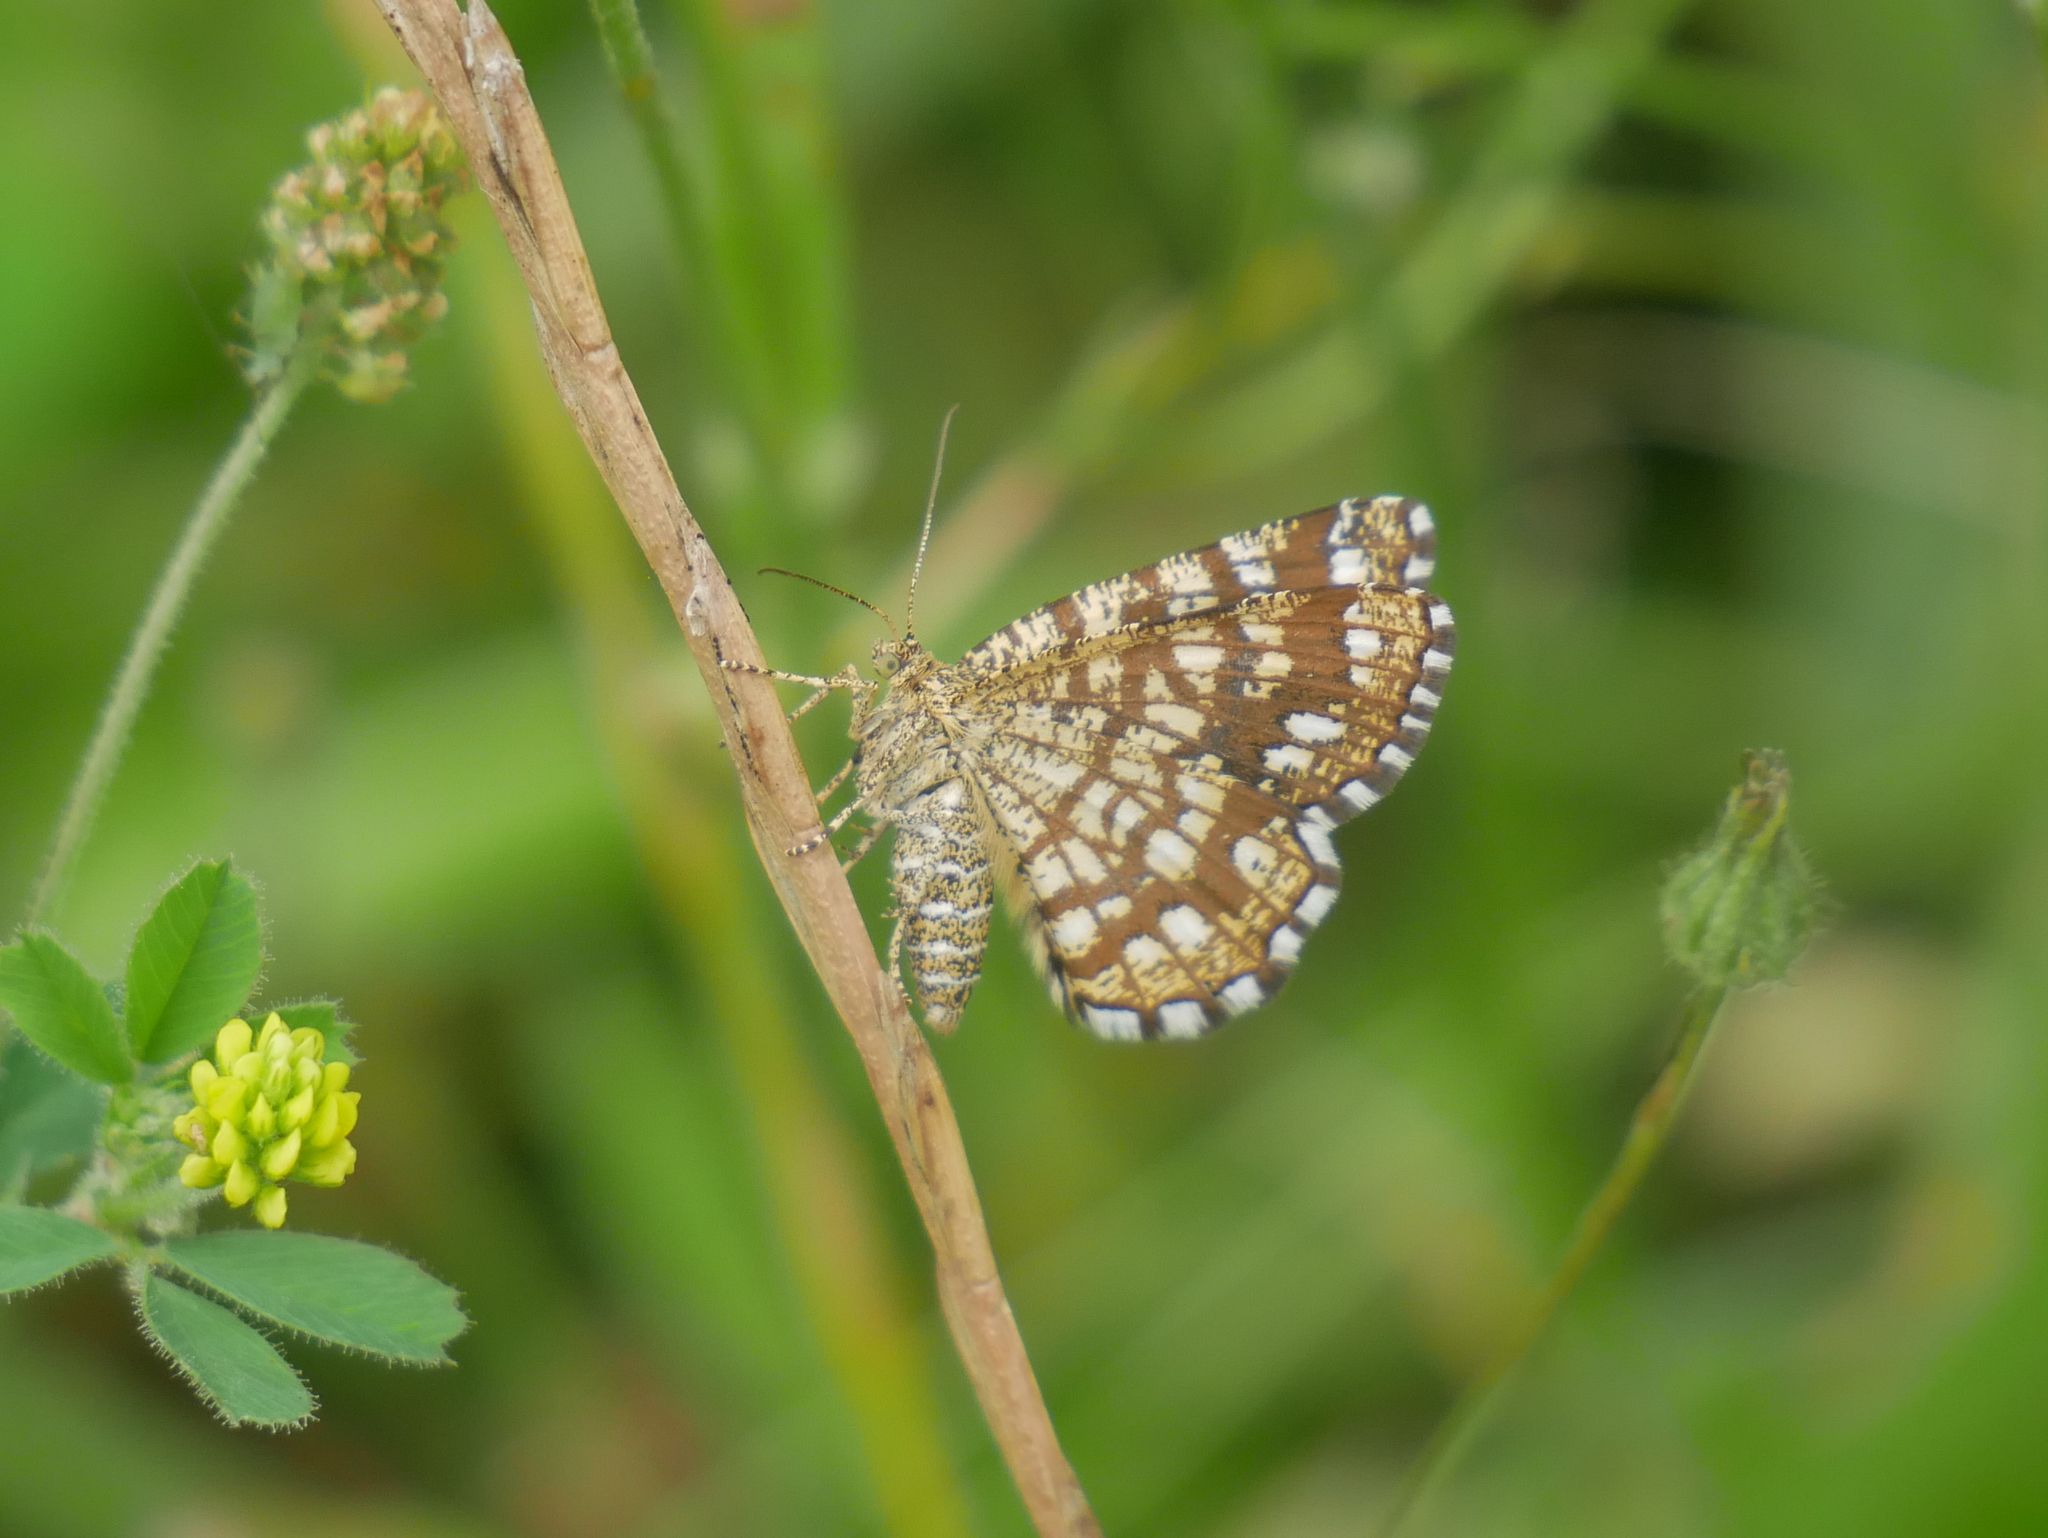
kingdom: Animalia
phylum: Arthropoda
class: Insecta
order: Lepidoptera
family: Geometridae
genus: Chiasmia
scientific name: Chiasmia clathrata
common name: Latticed heath
